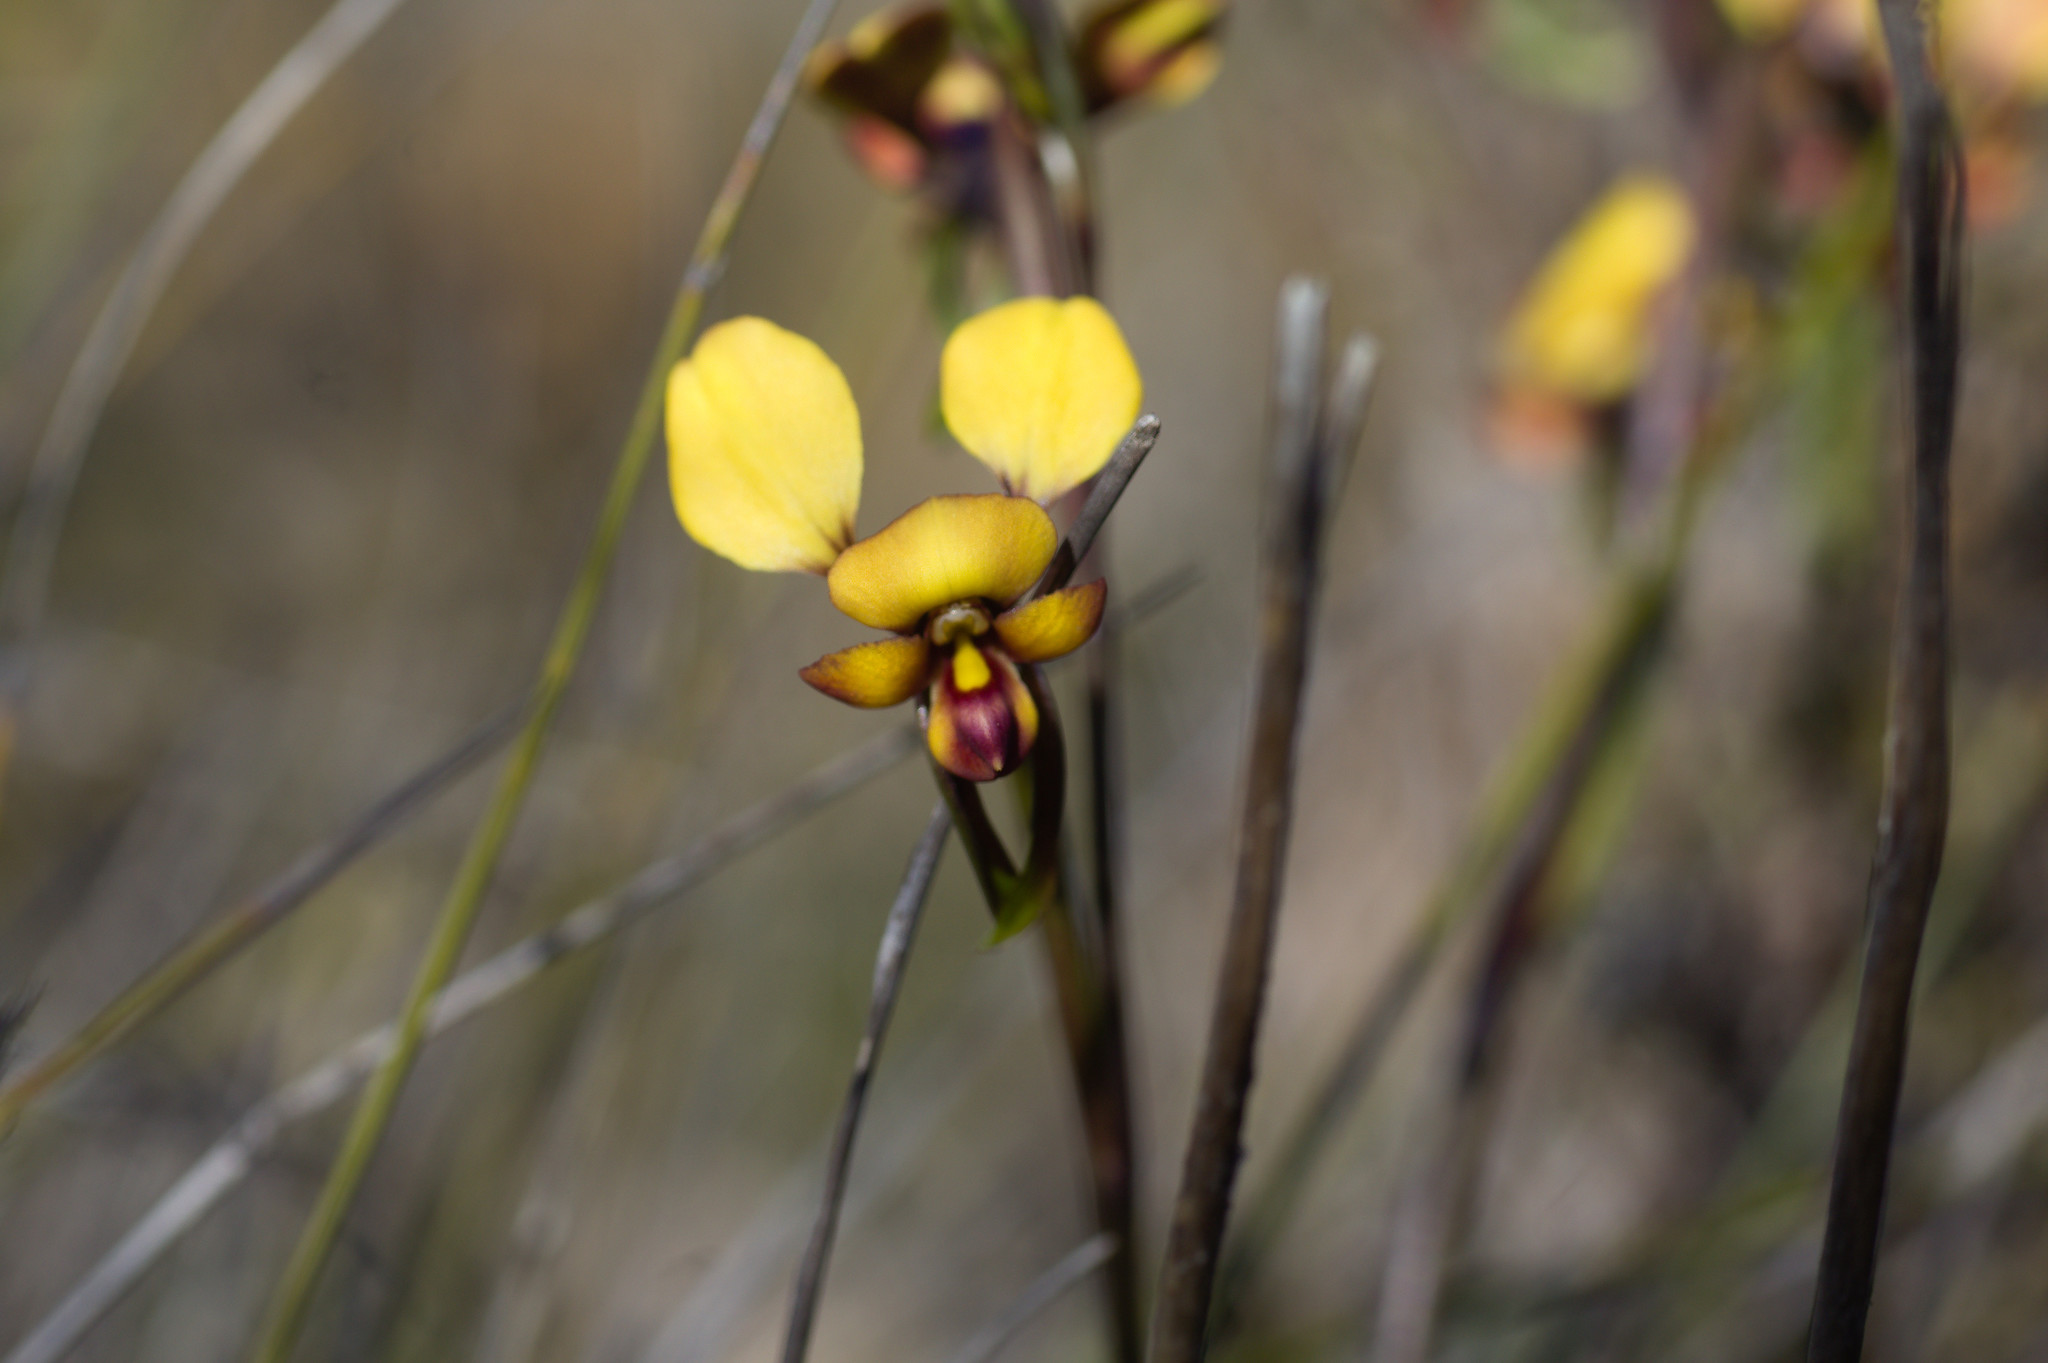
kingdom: Plantae
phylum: Tracheophyta
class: Liliopsida
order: Asparagales
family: Orchidaceae
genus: Diuris
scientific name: Diuris brachyscapa
